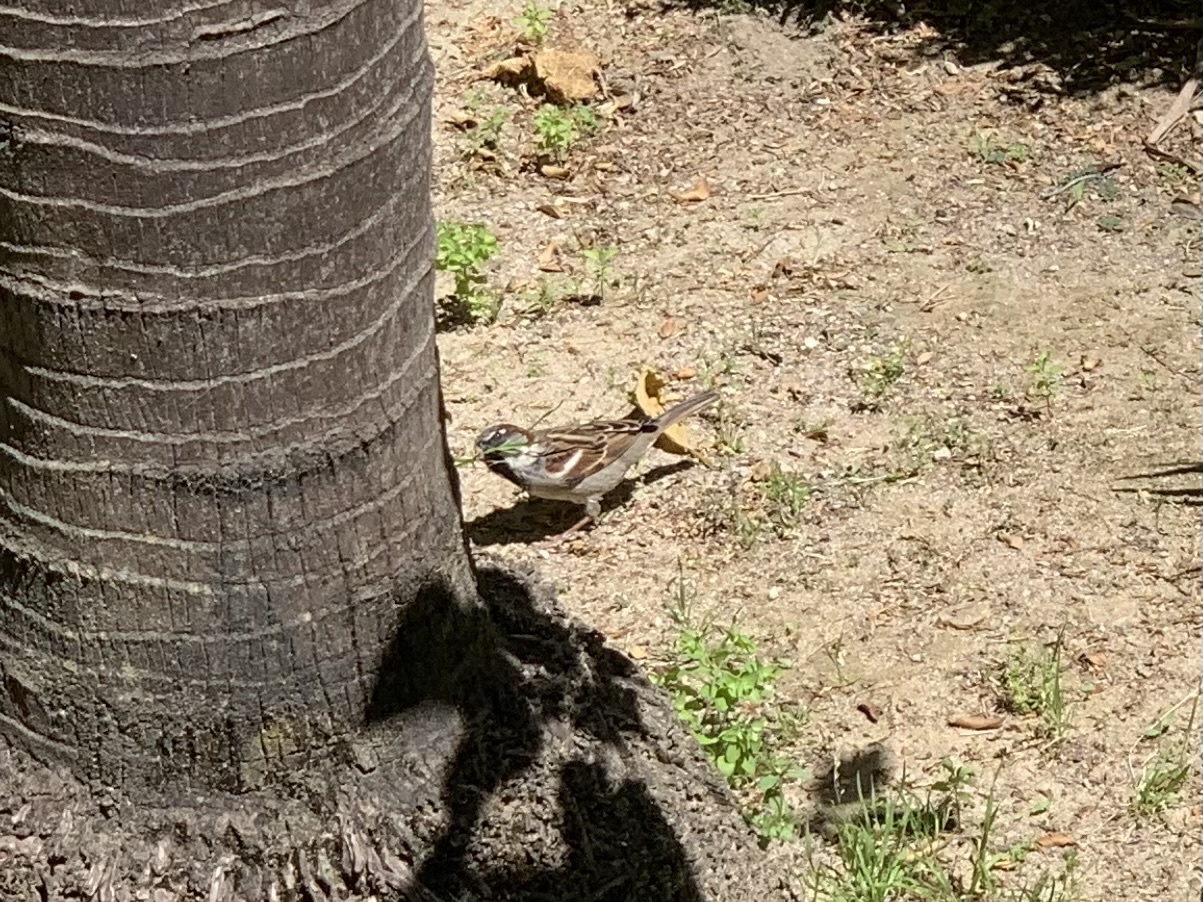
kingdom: Animalia
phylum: Chordata
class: Aves
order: Passeriformes
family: Passeridae
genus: Passer
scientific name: Passer domesticus
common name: House sparrow
